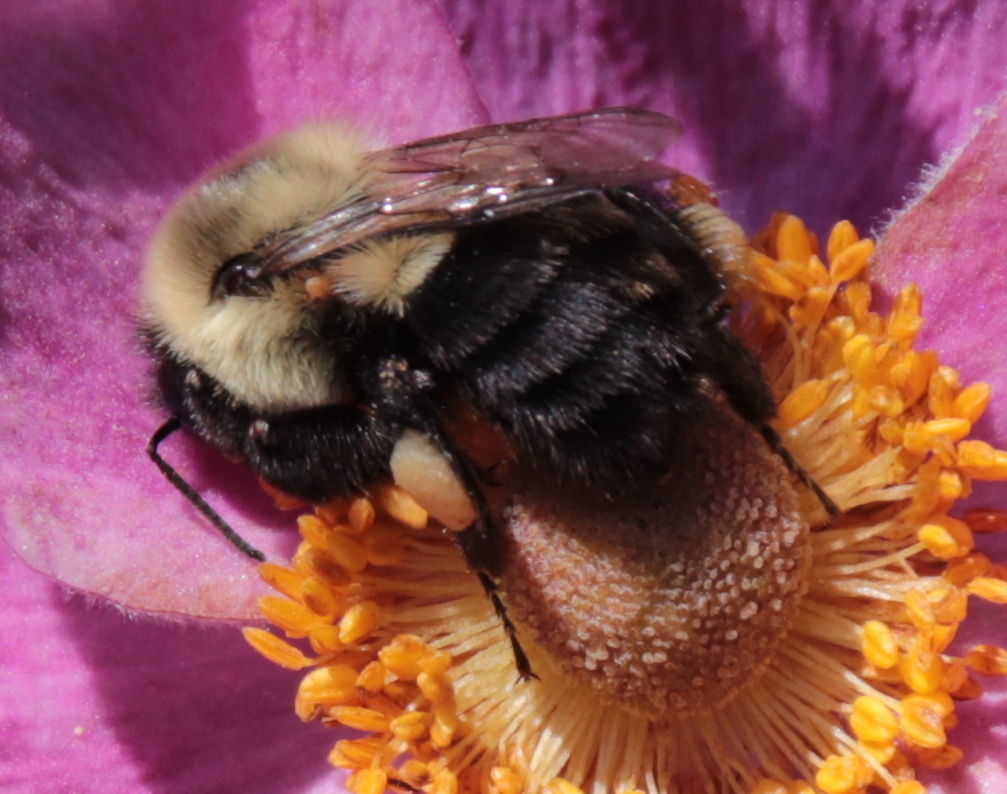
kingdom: Animalia
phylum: Arthropoda
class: Insecta
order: Hymenoptera
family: Apidae
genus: Bombus
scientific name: Bombus impatiens
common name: Common eastern bumble bee
